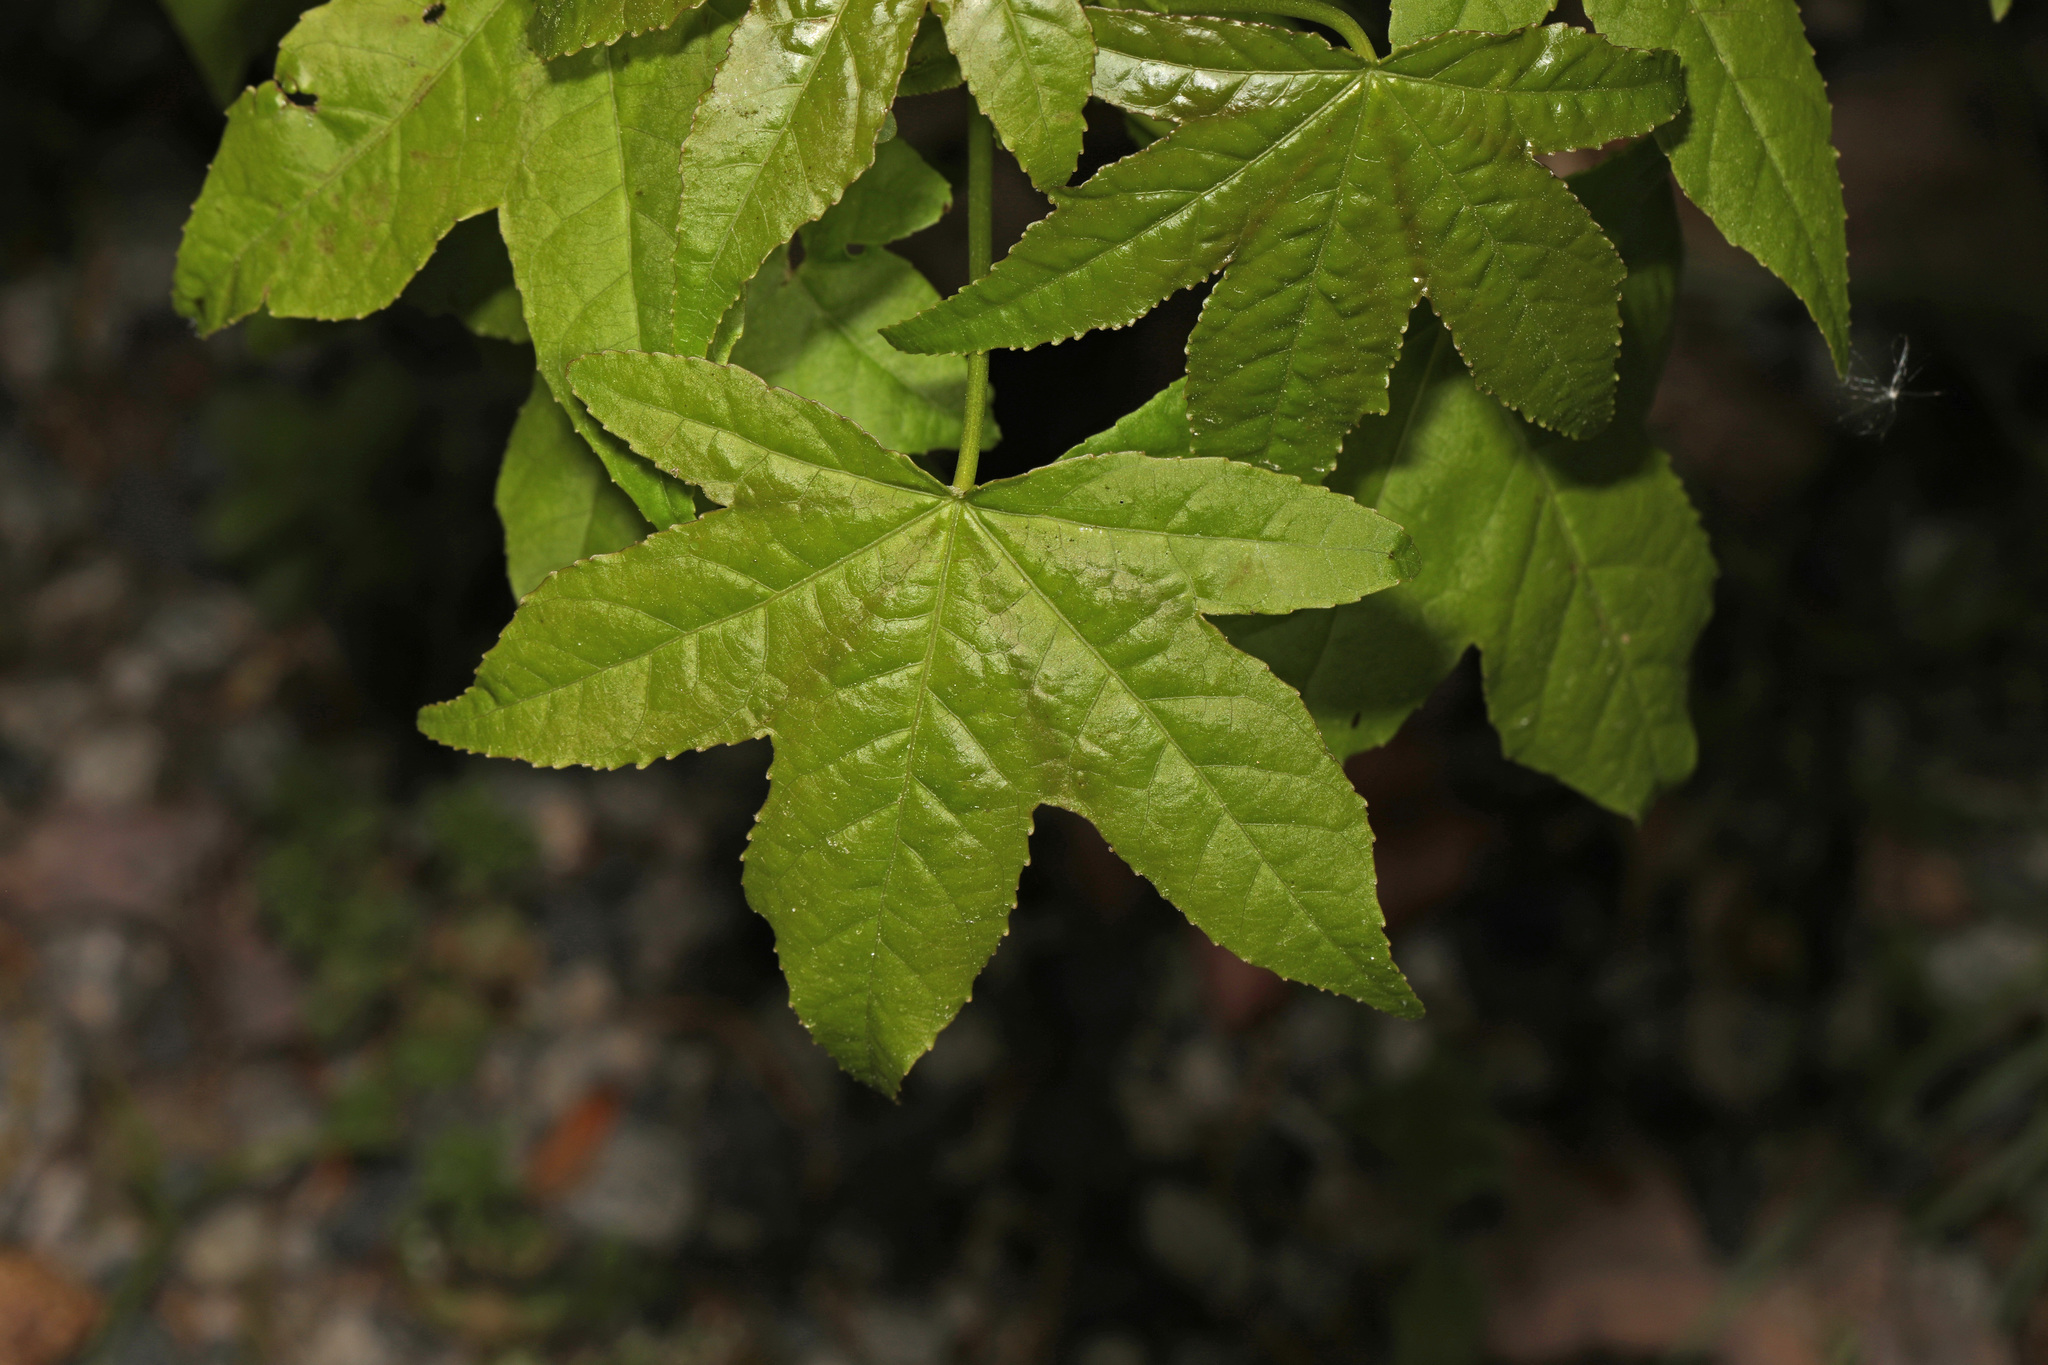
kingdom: Plantae
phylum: Tracheophyta
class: Magnoliopsida
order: Saxifragales
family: Altingiaceae
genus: Liquidambar
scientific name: Liquidambar styraciflua
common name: Sweet gum
